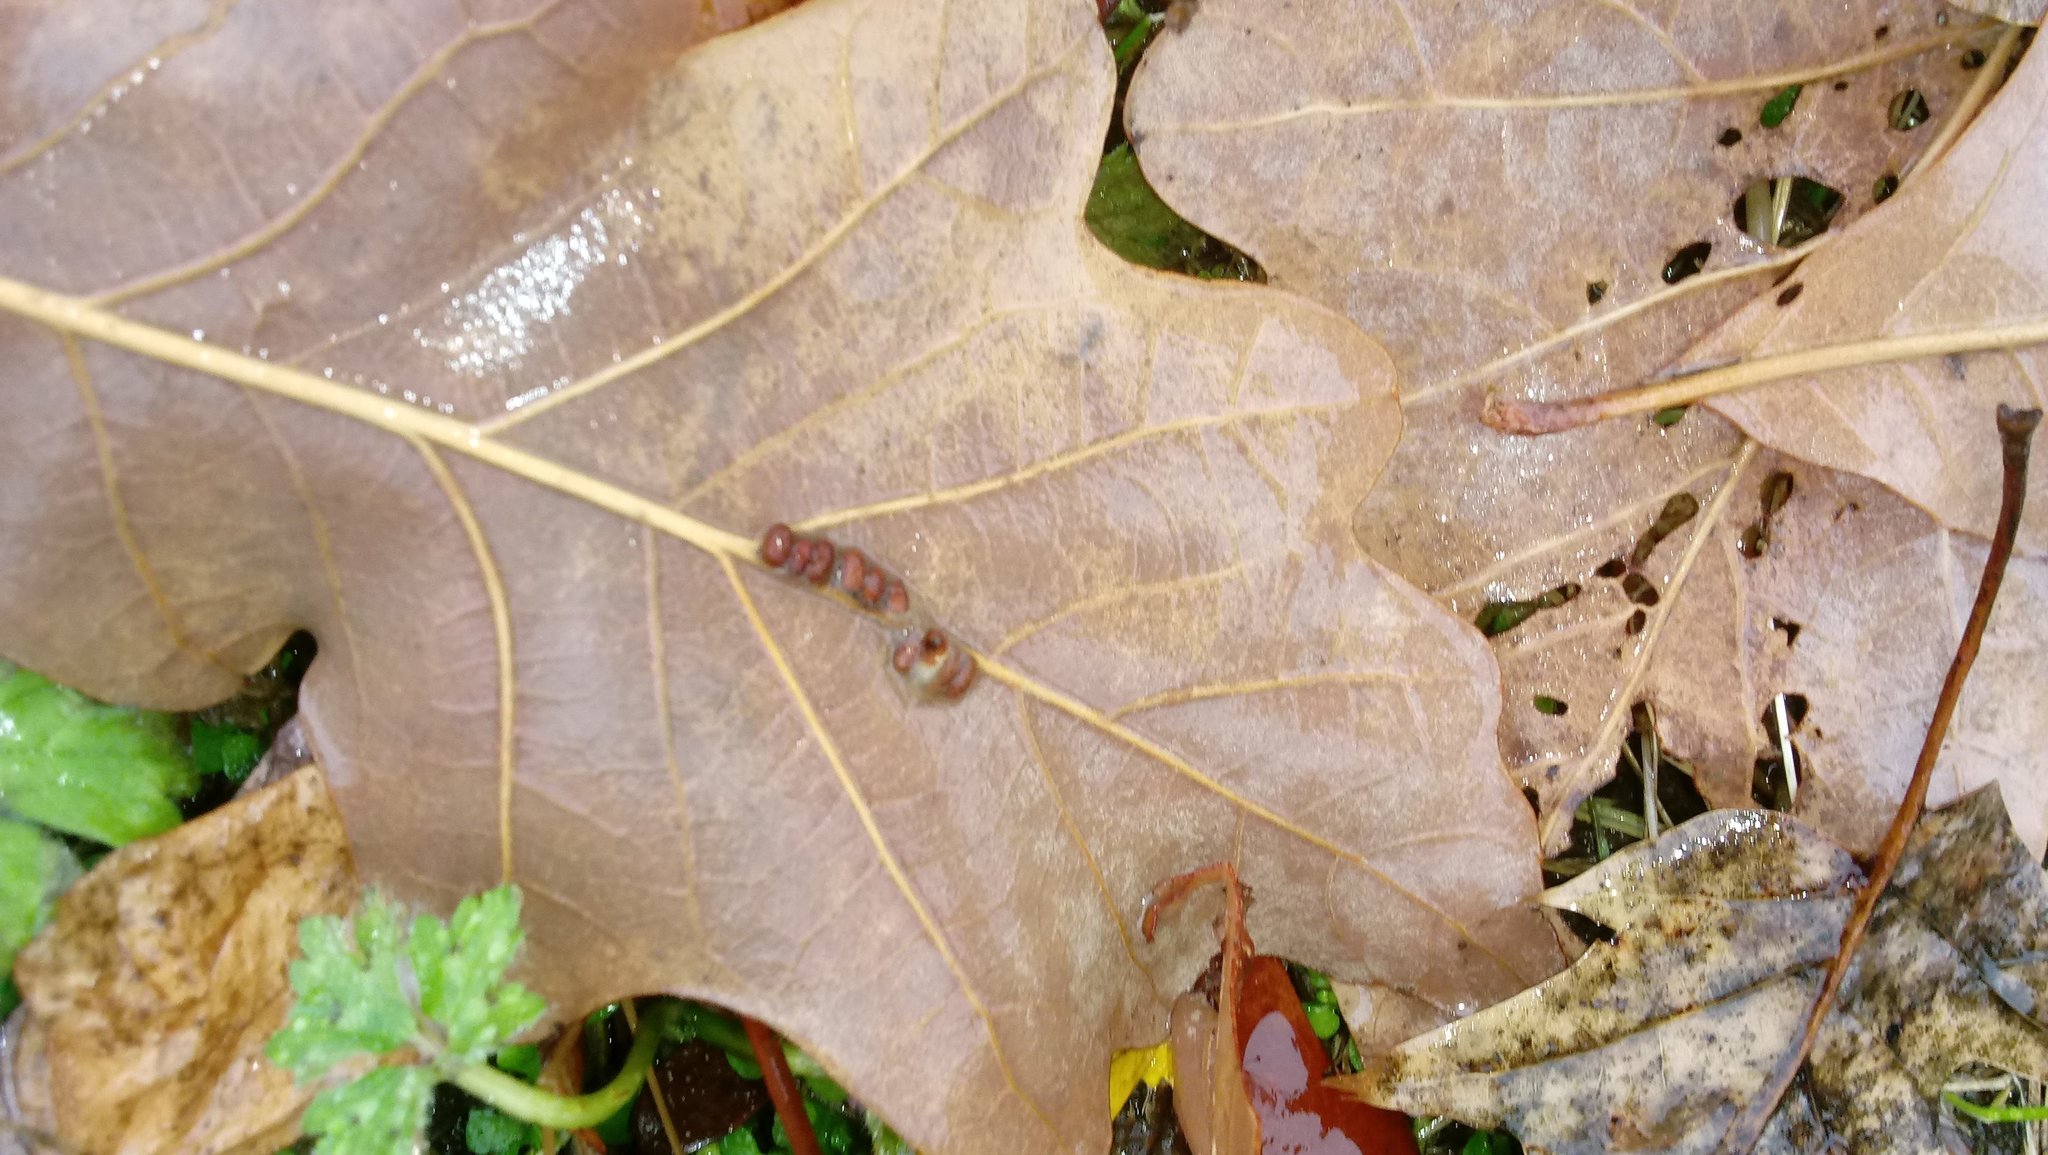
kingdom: Animalia
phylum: Arthropoda
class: Insecta
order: Hymenoptera
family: Cynipidae
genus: Andricus
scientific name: Andricus Druon ignotum
